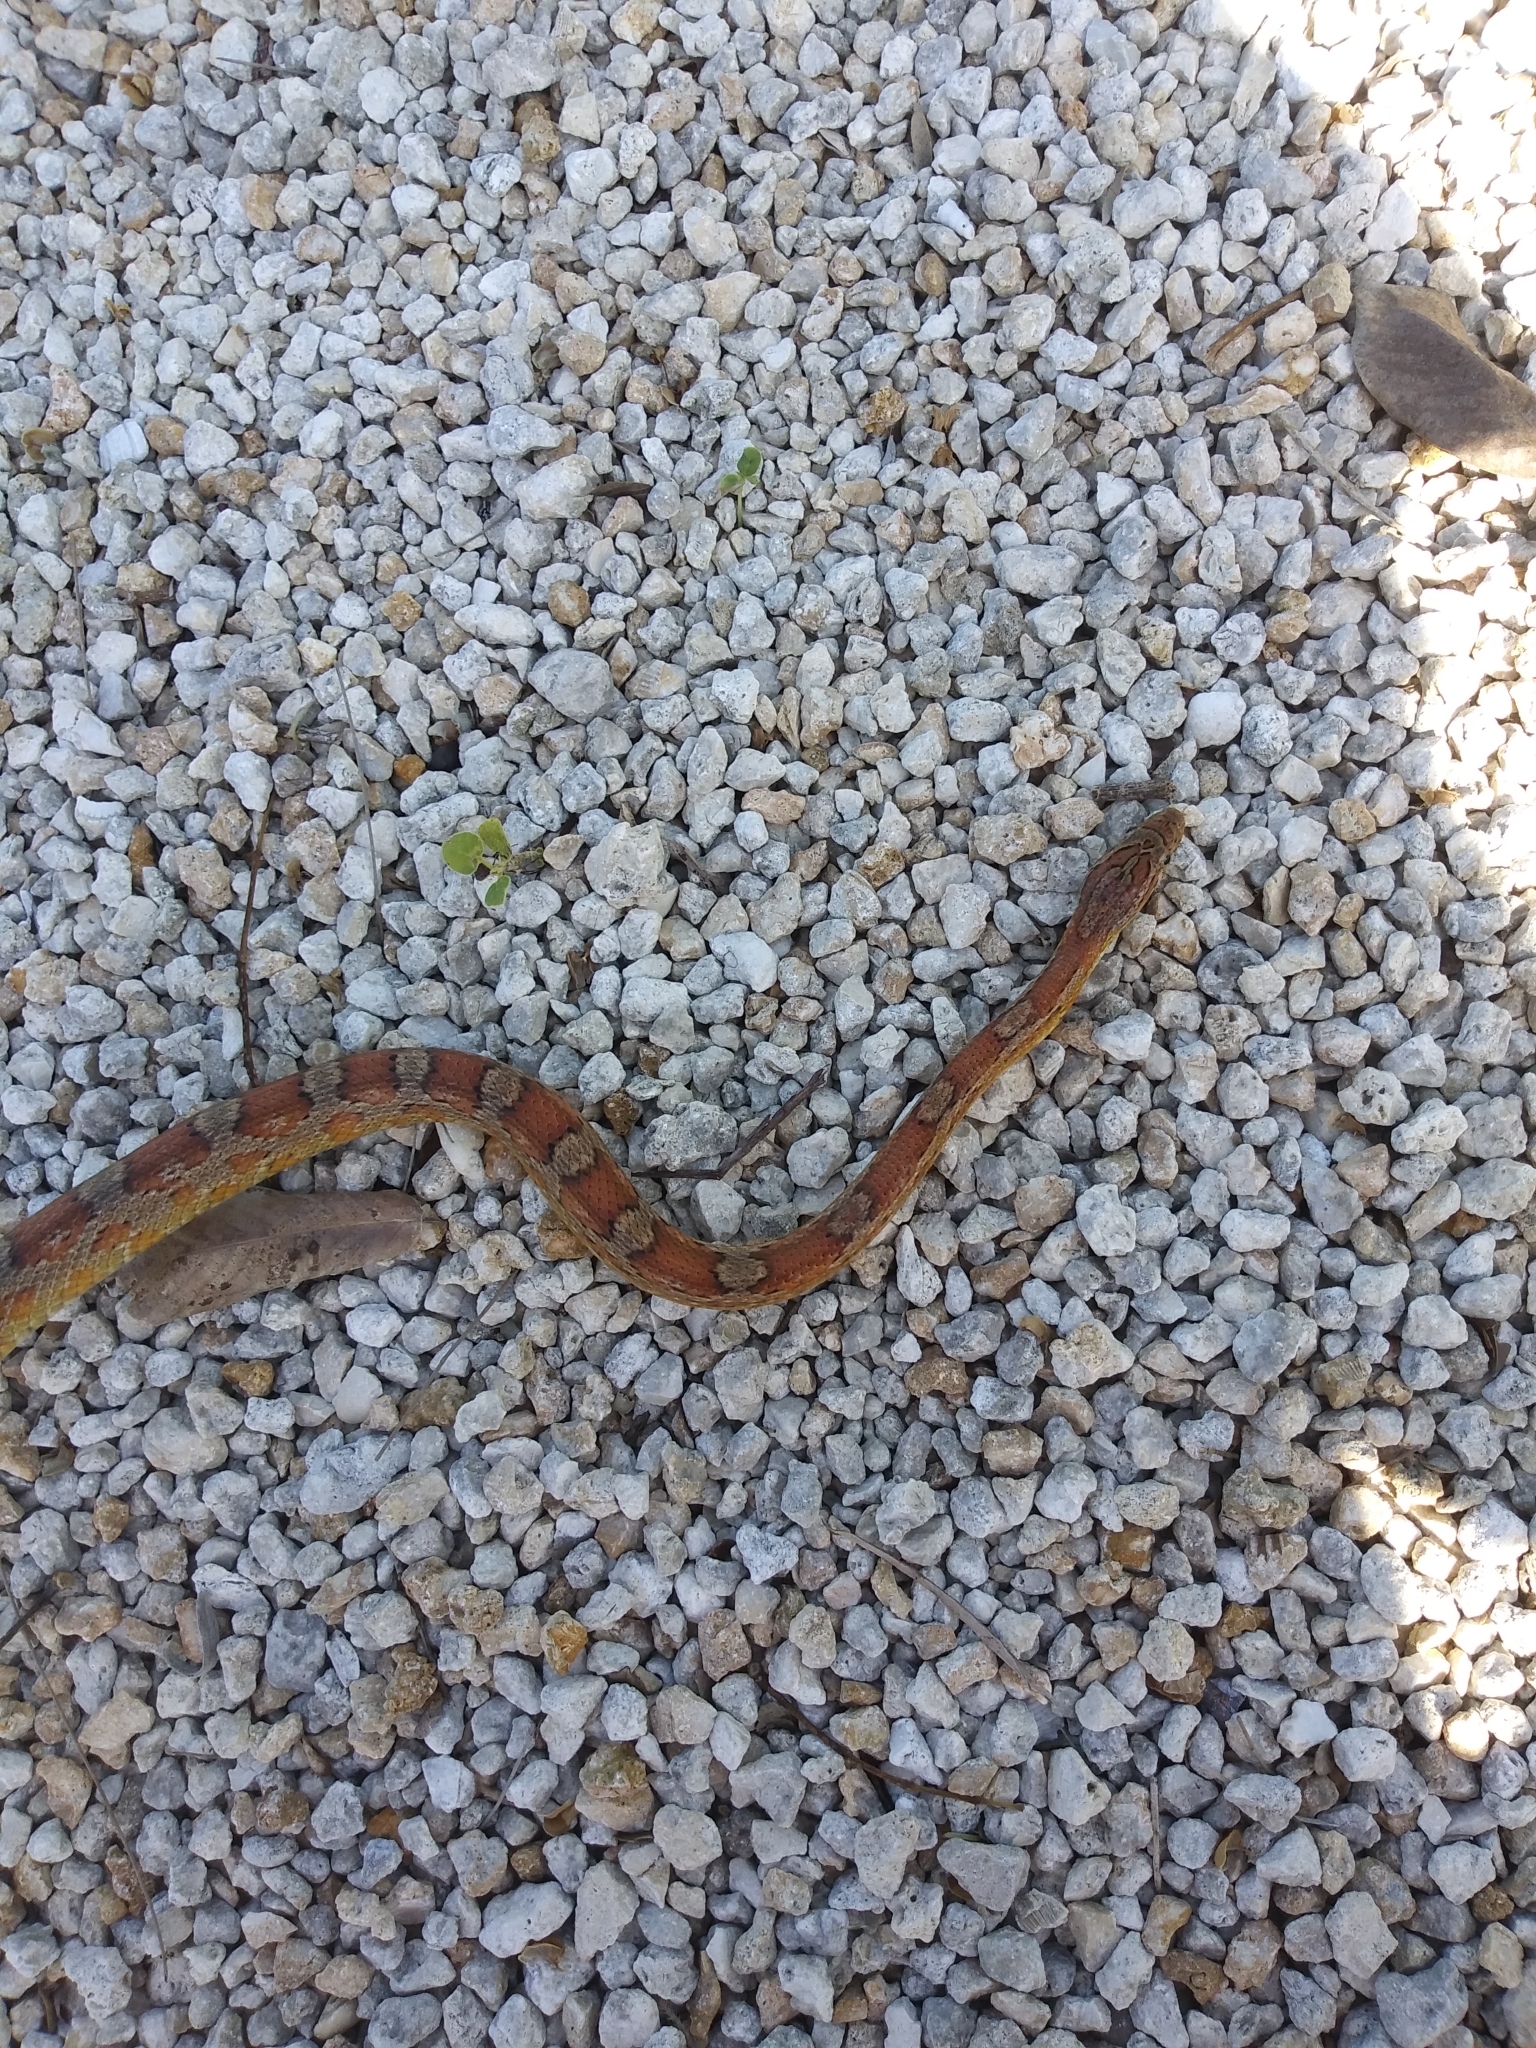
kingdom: Animalia
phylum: Chordata
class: Squamata
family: Colubridae
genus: Pantherophis
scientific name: Pantherophis guttatus
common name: Red cornsnake
